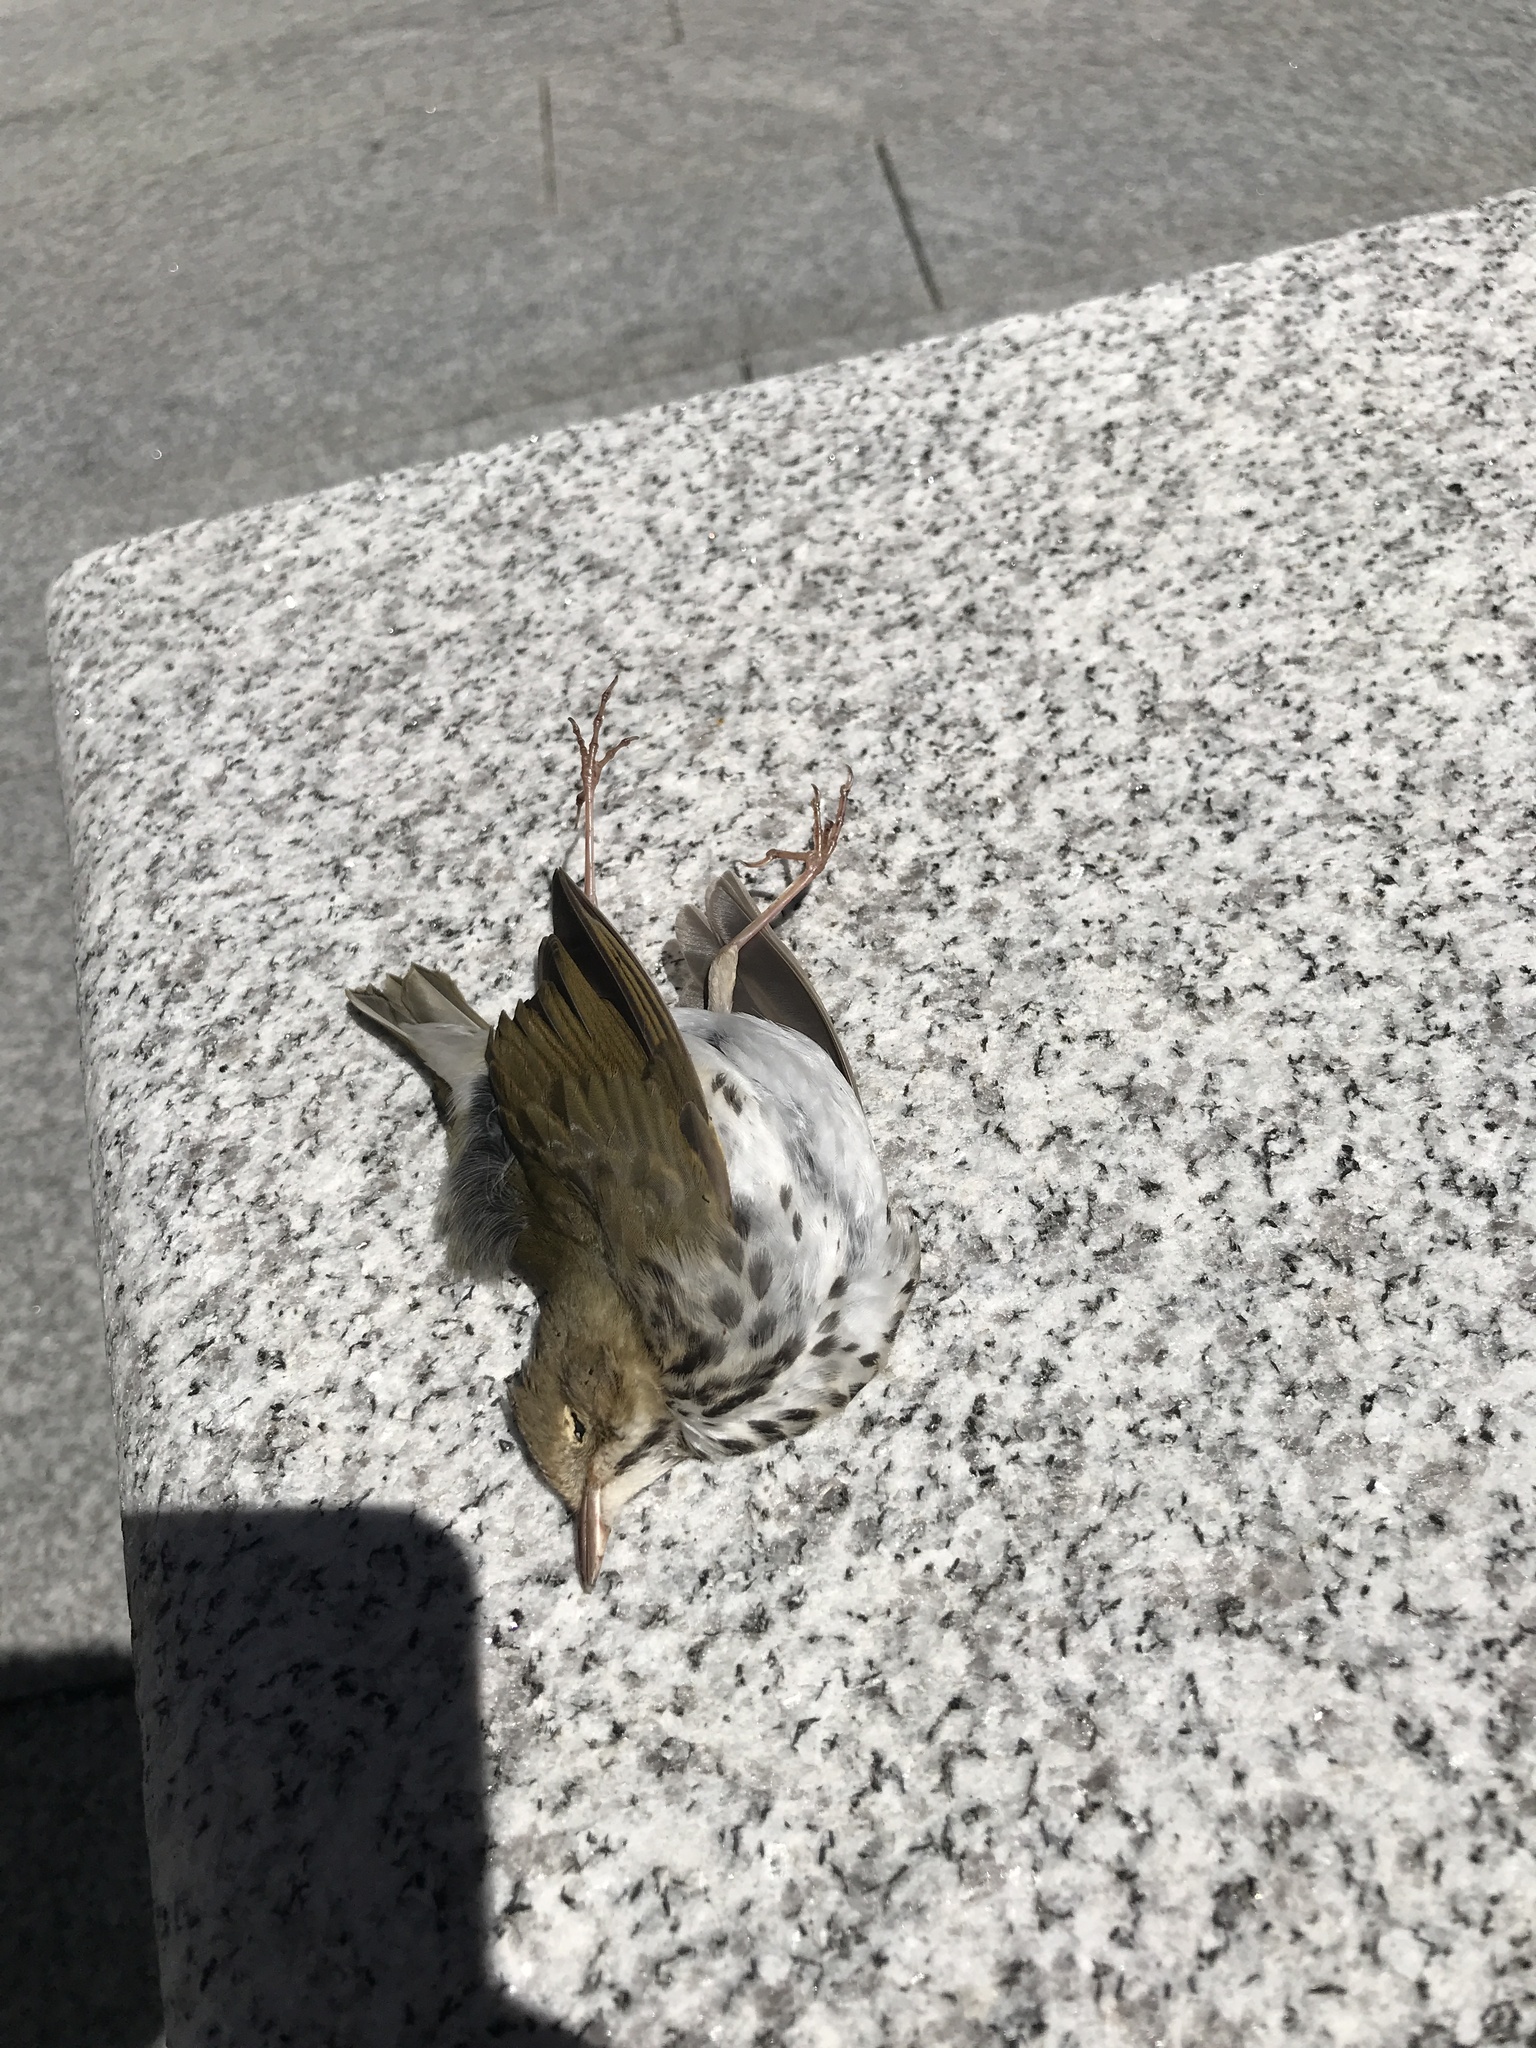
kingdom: Animalia
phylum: Chordata
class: Aves
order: Passeriformes
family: Parulidae
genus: Seiurus
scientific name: Seiurus aurocapilla
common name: Ovenbird
